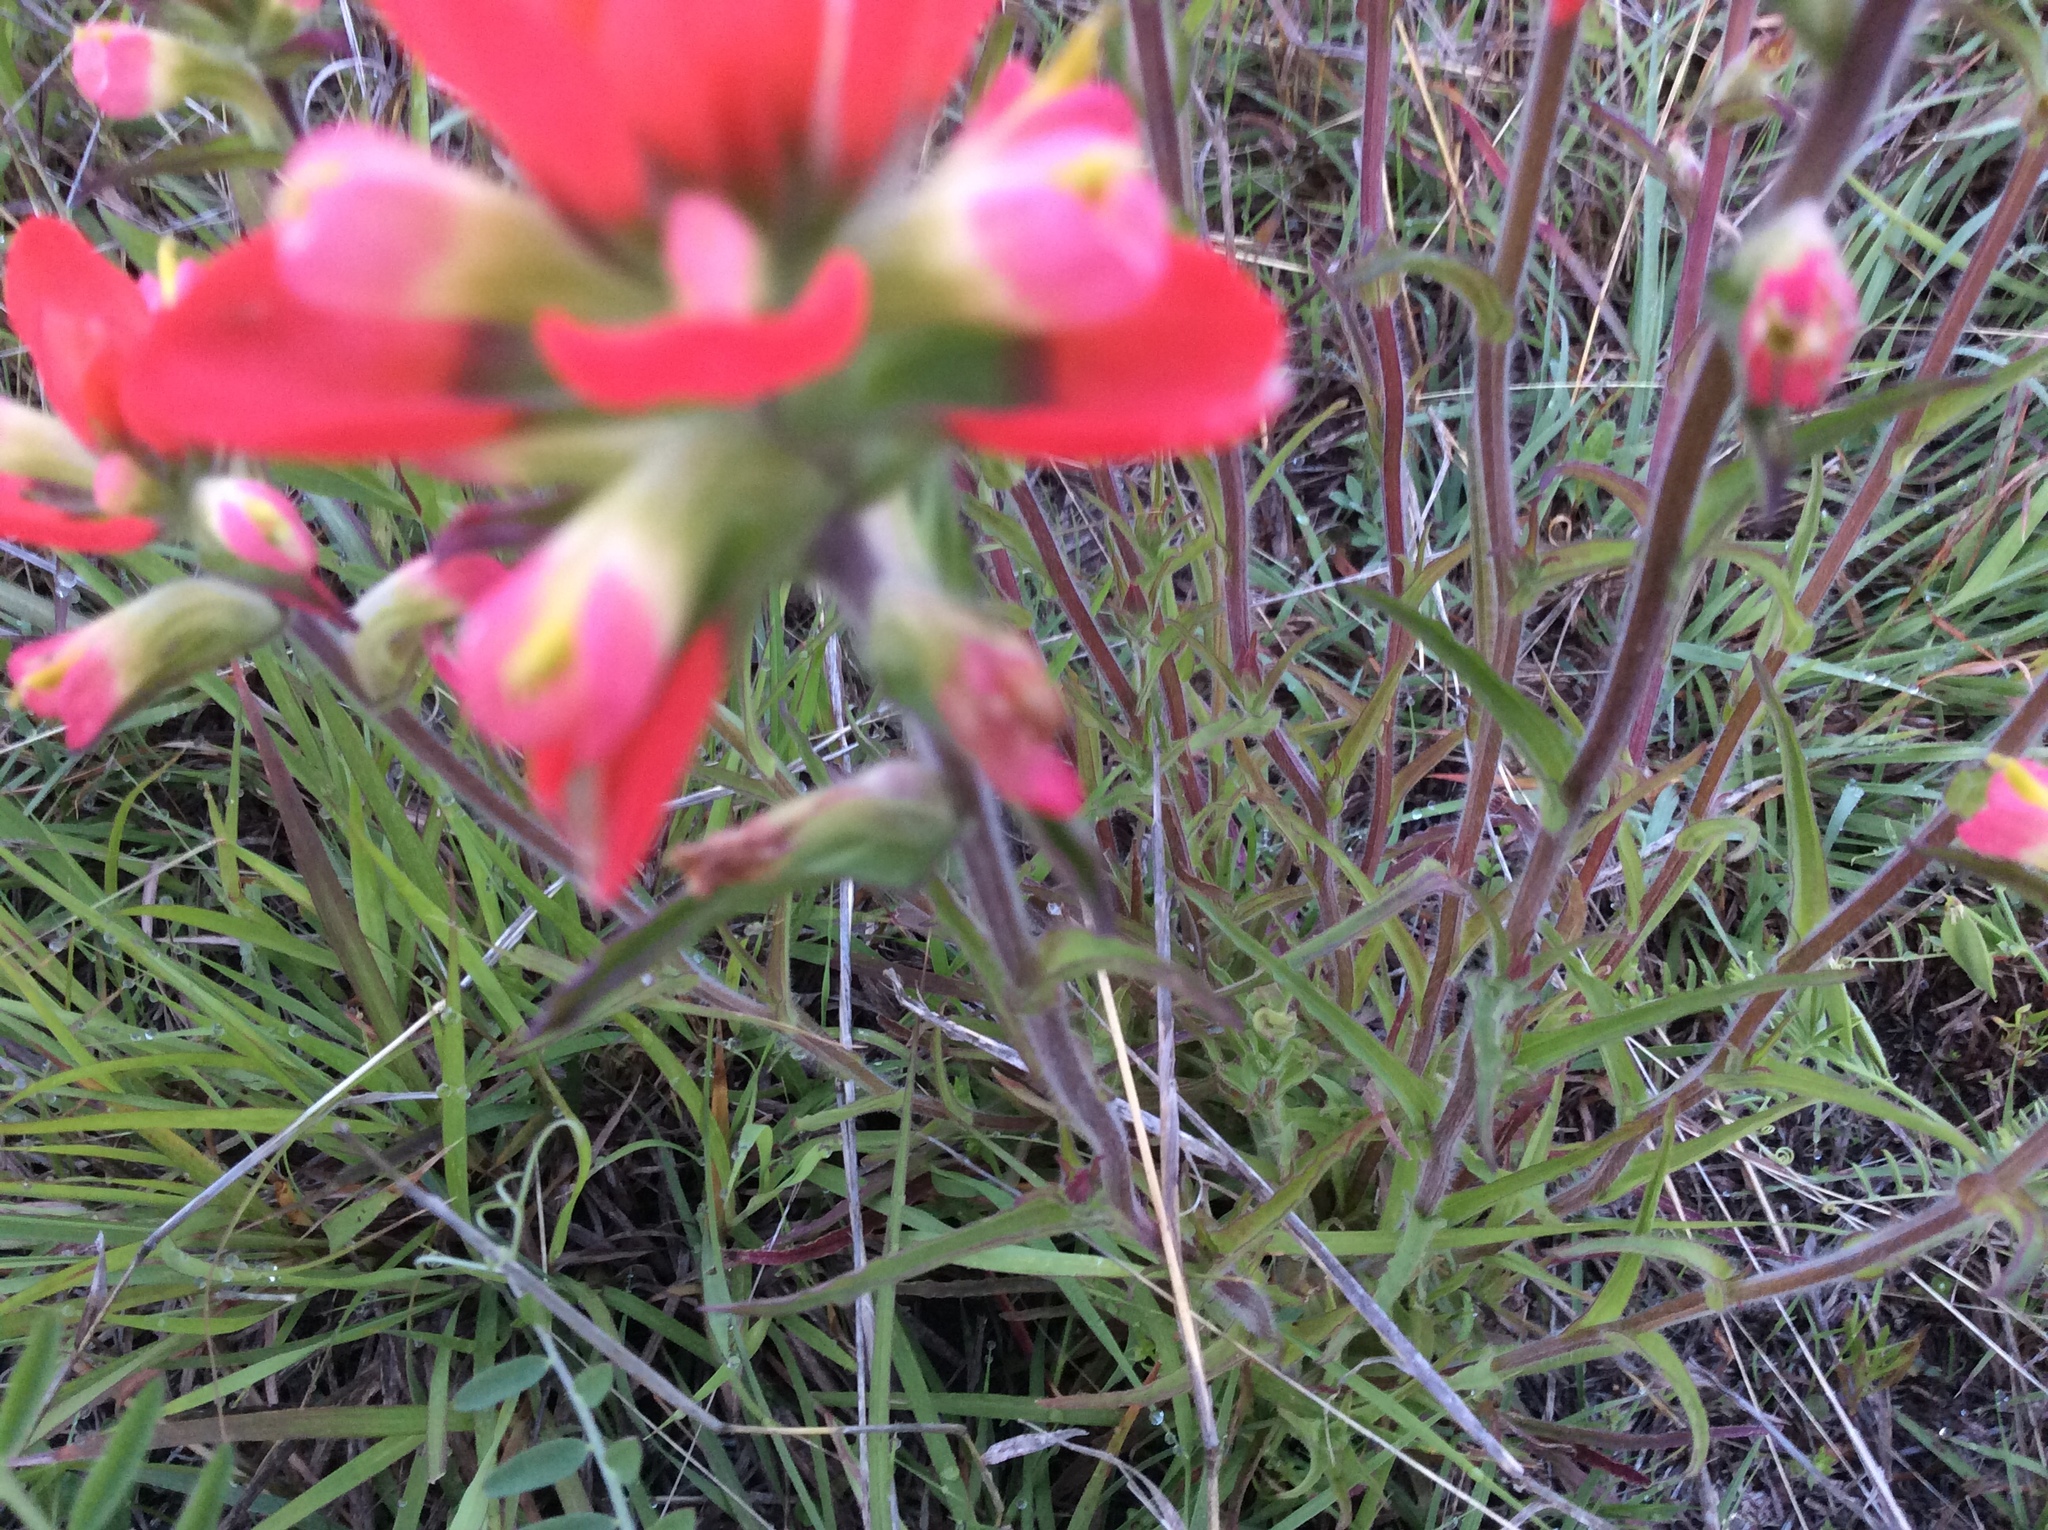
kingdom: Plantae
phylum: Tracheophyta
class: Magnoliopsida
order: Lamiales
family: Orobanchaceae
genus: Castilleja
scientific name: Castilleja indivisa
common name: Texas paintbrush
